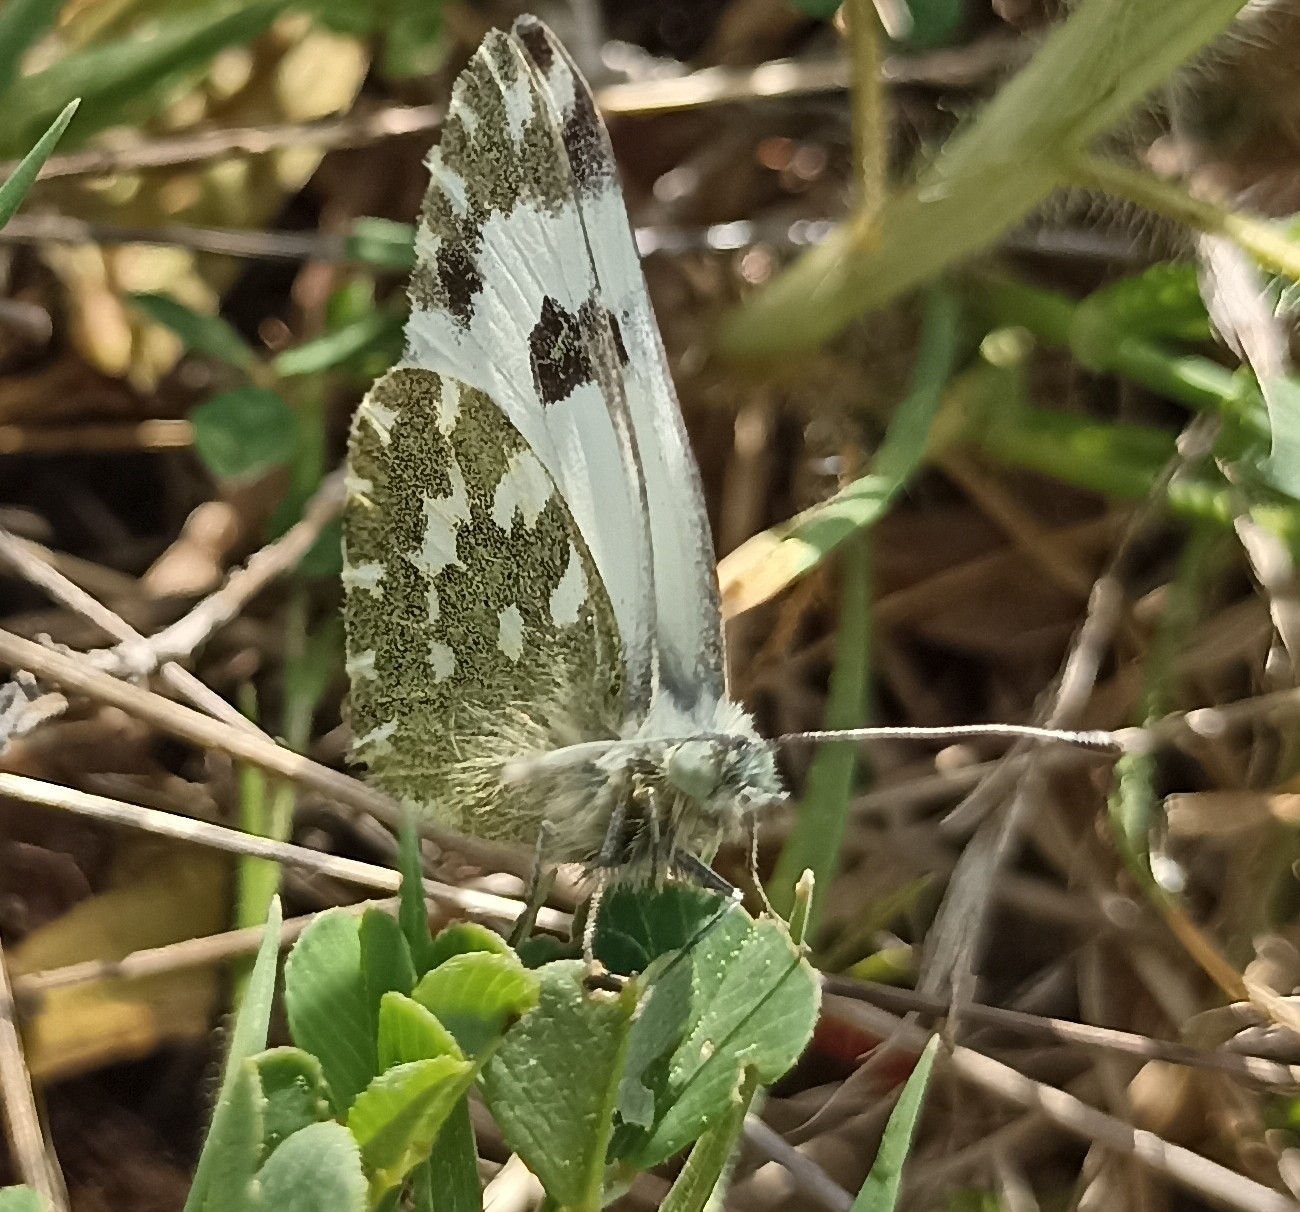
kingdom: Animalia
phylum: Arthropoda
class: Insecta
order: Lepidoptera
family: Pieridae
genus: Pontia
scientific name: Pontia daplidice
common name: Bath white
